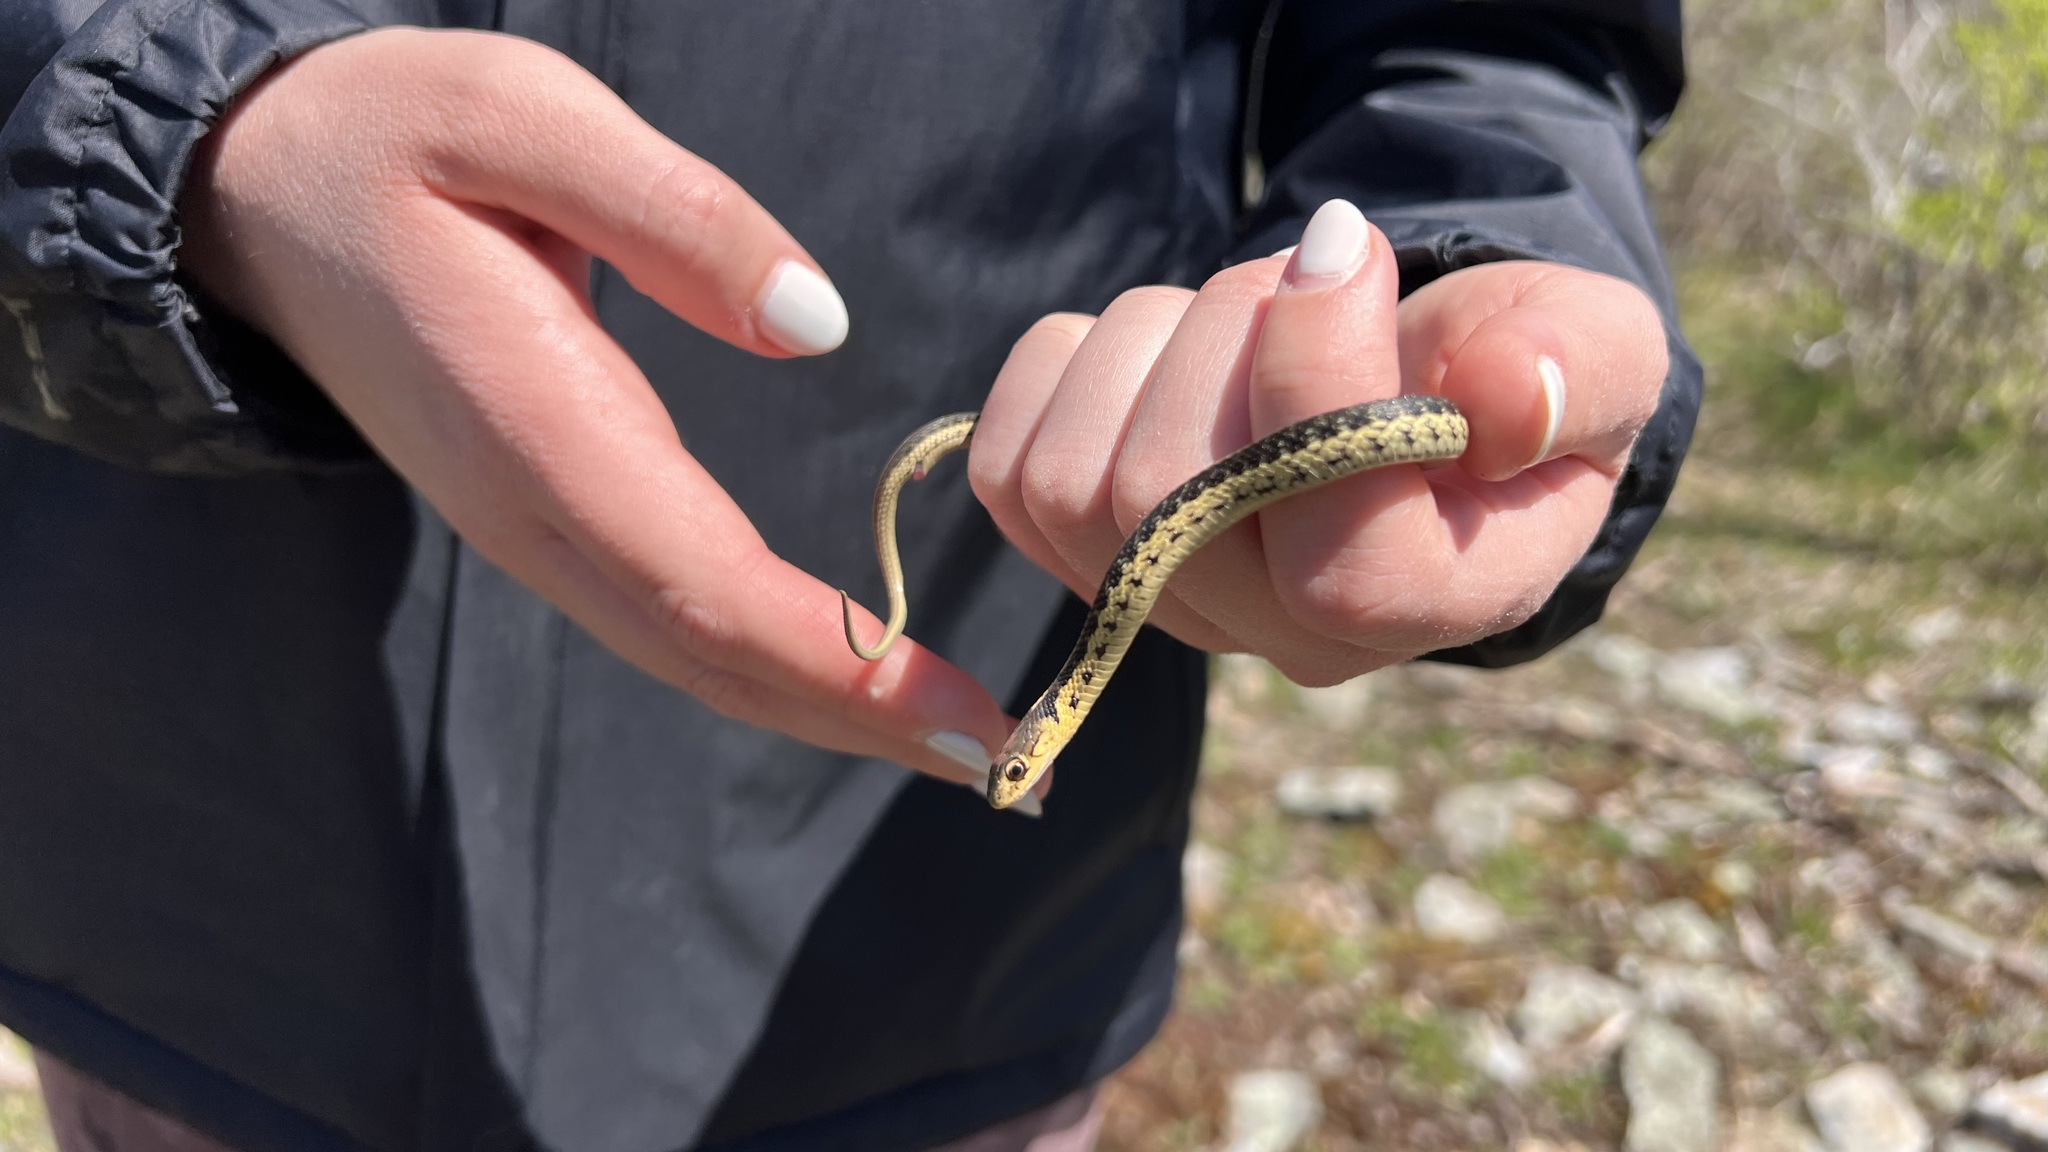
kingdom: Animalia
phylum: Chordata
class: Squamata
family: Colubridae
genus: Thamnophis
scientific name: Thamnophis sirtalis
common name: Common garter snake
